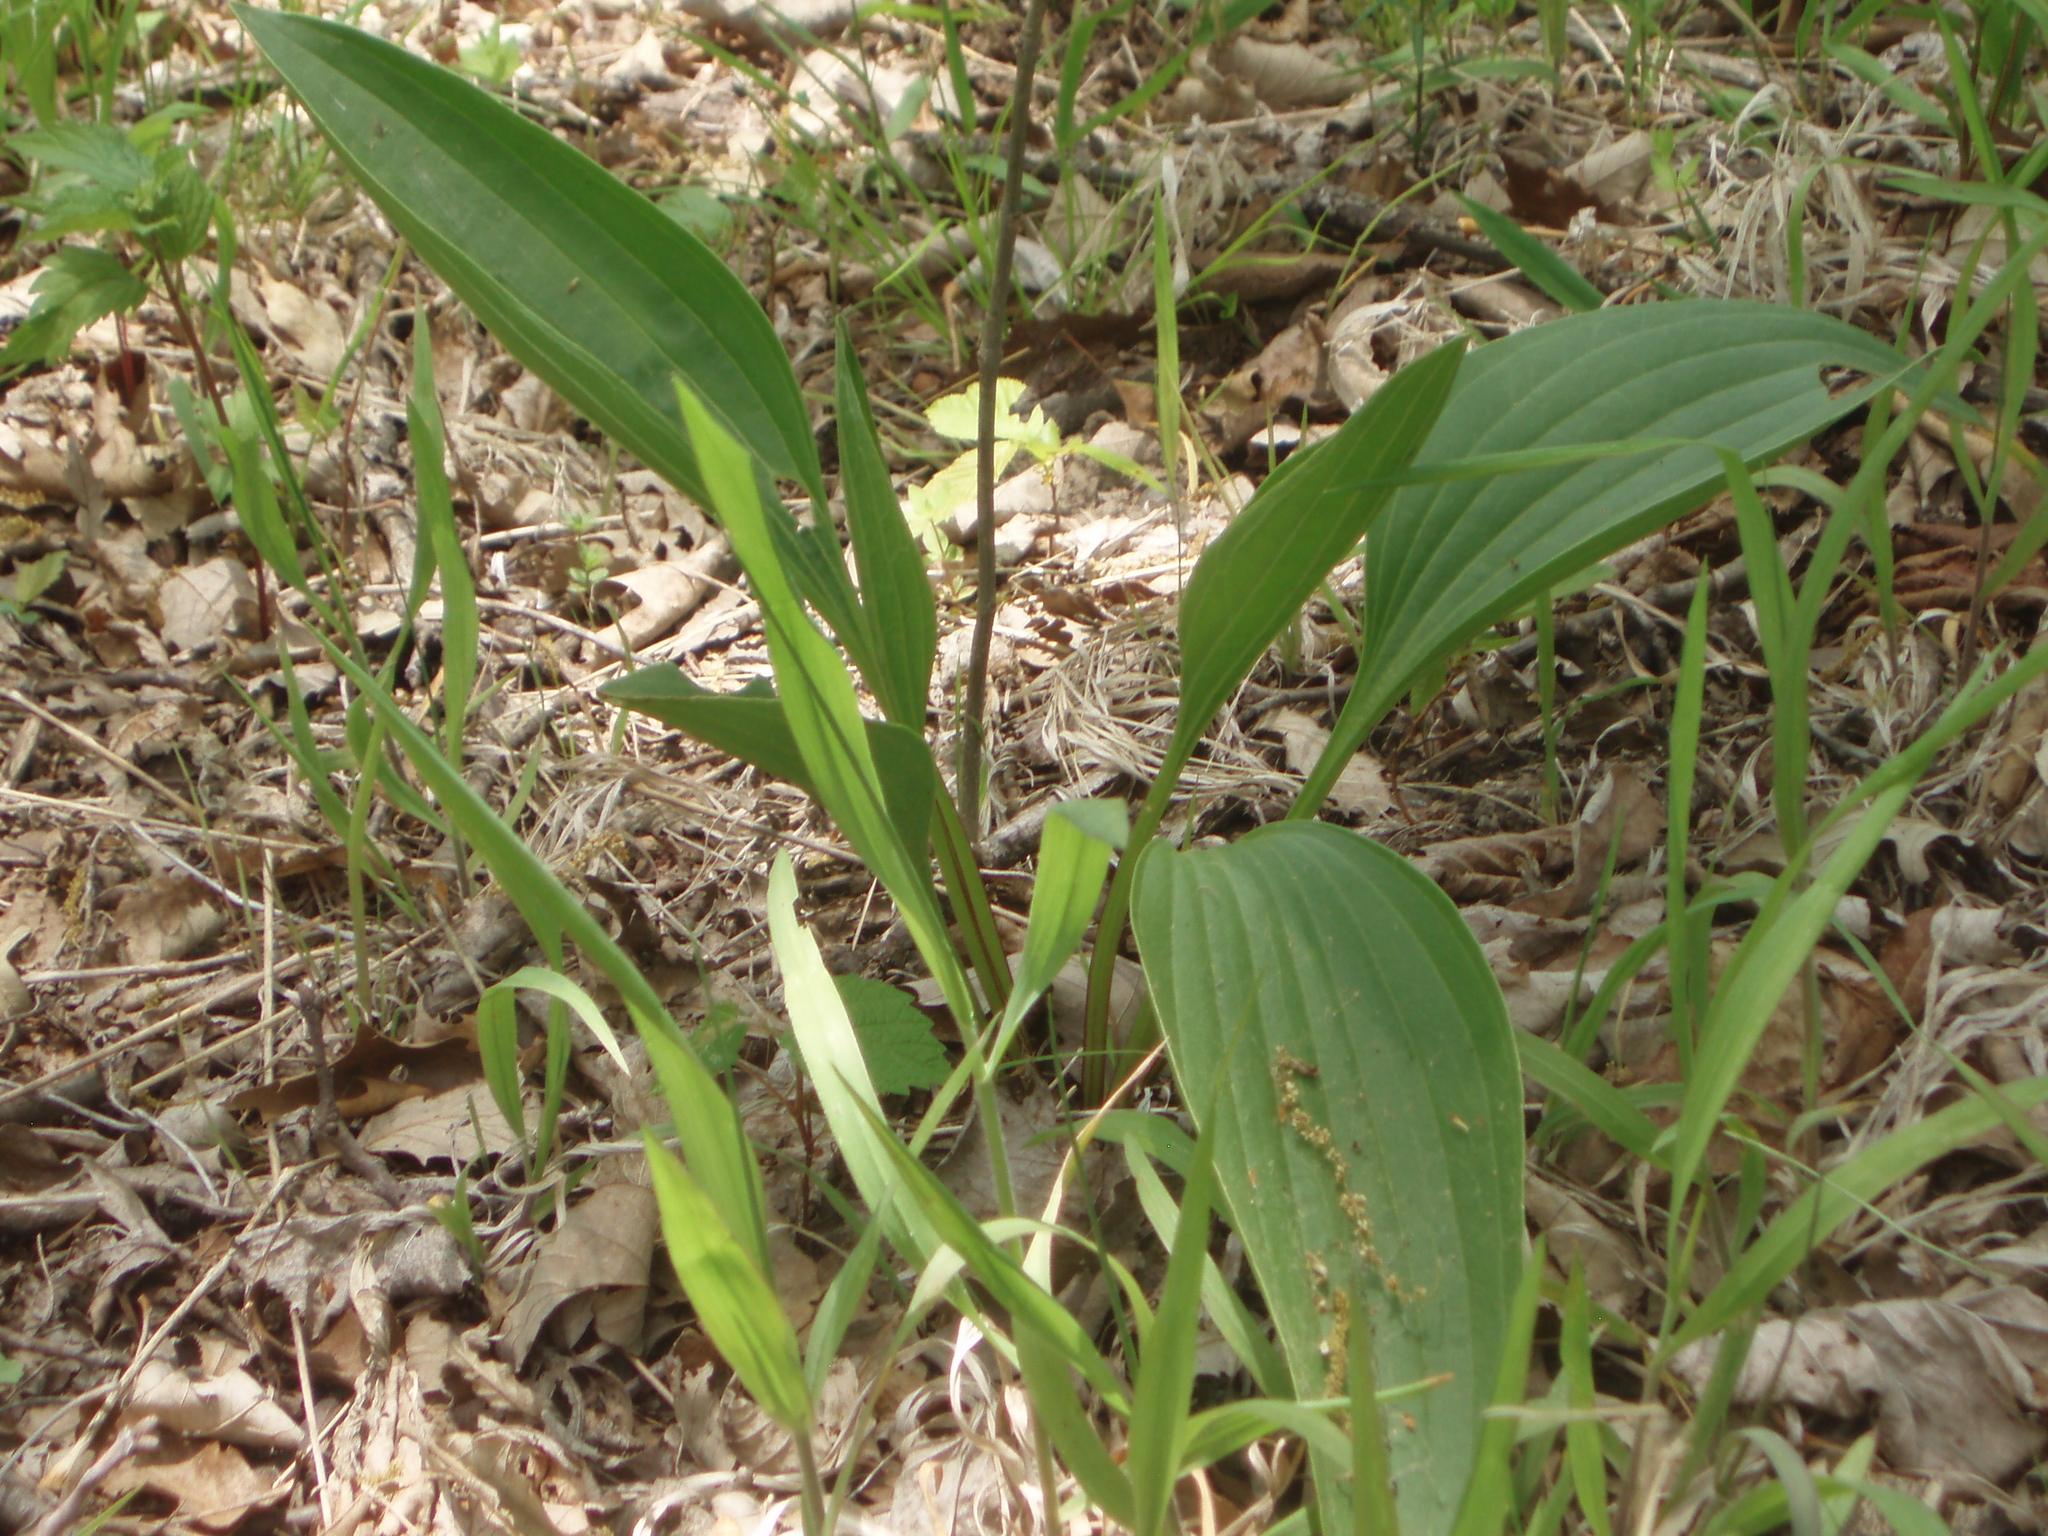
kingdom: Plantae
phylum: Tracheophyta
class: Magnoliopsida
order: Asterales
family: Asteraceae
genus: Arnoglossum
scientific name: Arnoglossum plantagineum
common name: Groove-stemmed indian-plantain
